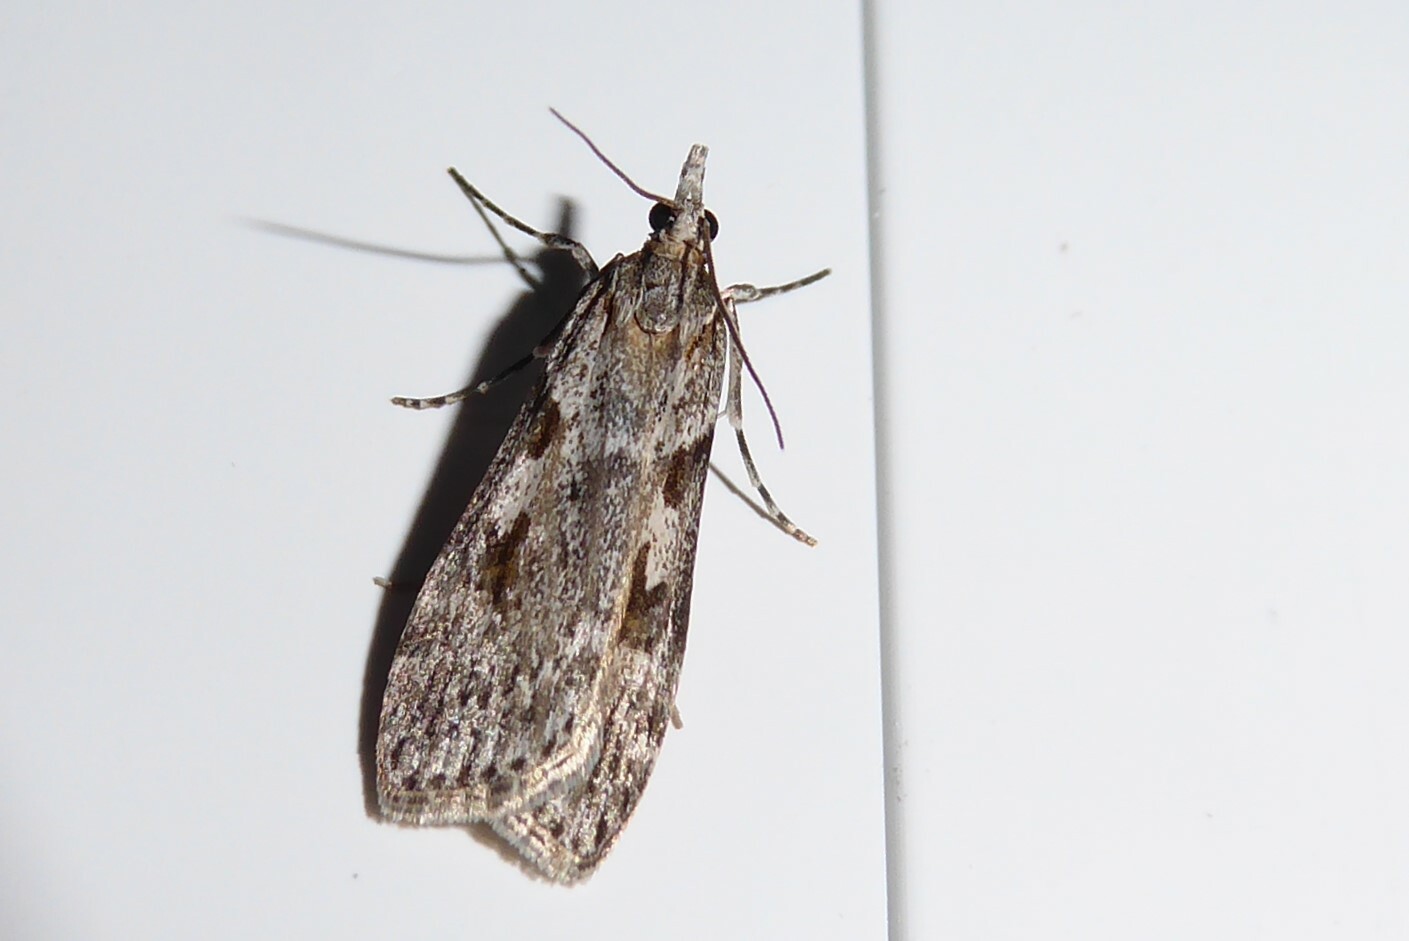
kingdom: Animalia
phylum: Arthropoda
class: Insecta
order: Lepidoptera
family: Crambidae
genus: Scoparia
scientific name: Scoparia halopis
